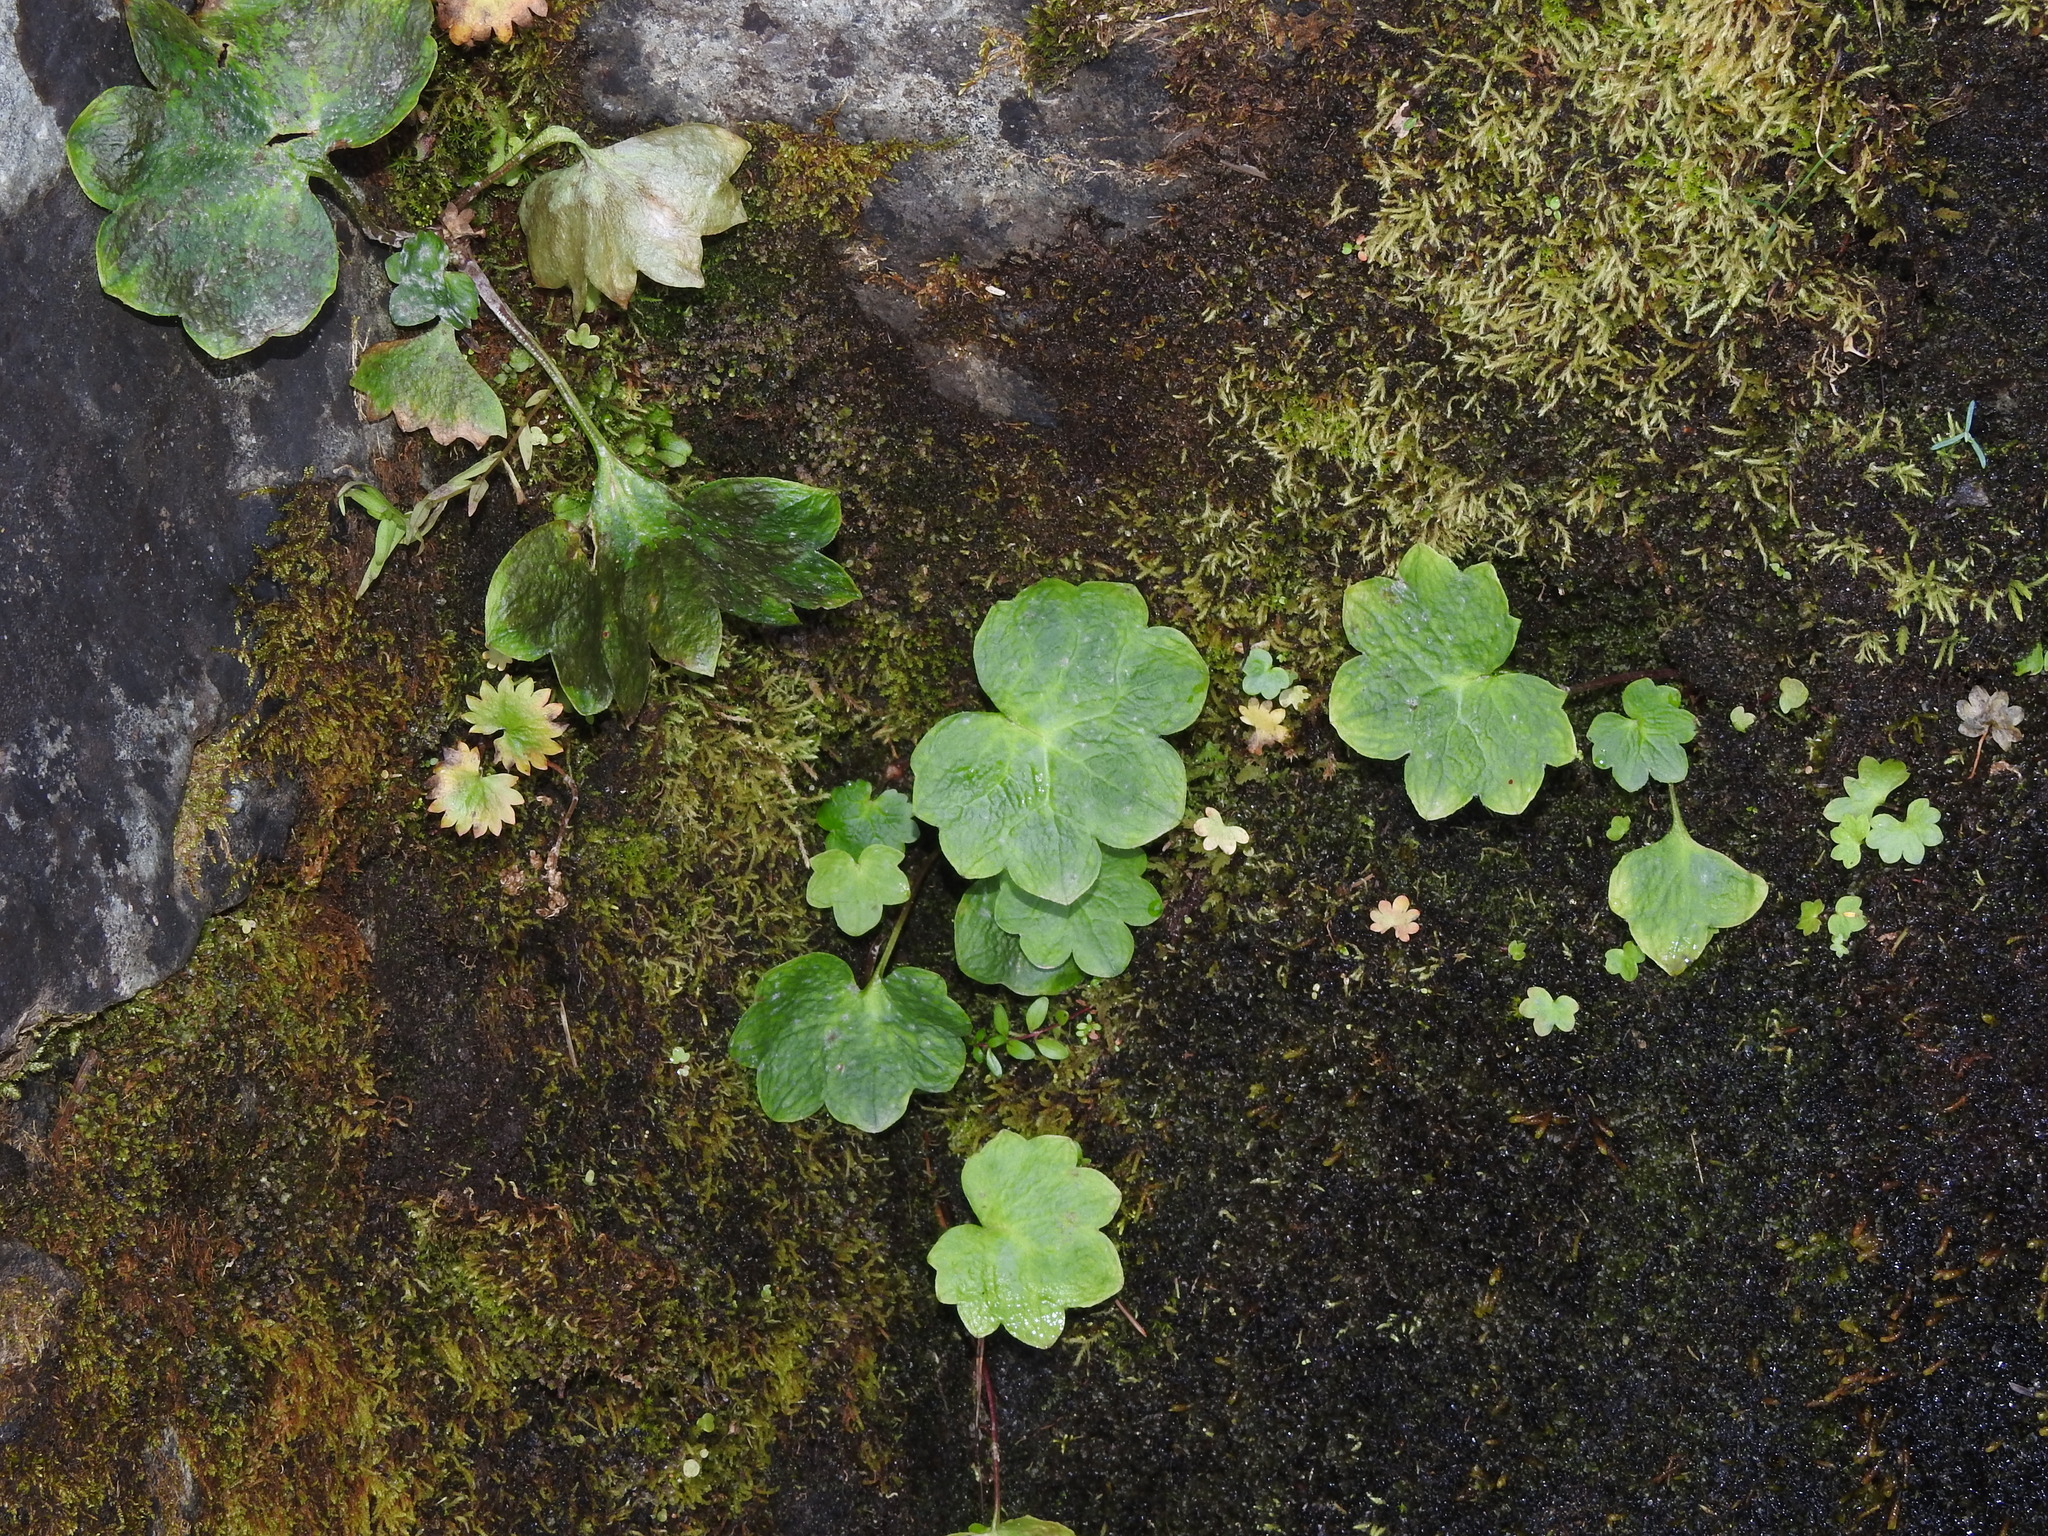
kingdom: Plantae
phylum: Tracheophyta
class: Magnoliopsida
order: Boraginales
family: Hydrophyllaceae
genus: Romanzoffia
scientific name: Romanzoffia sitchensis
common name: Sitka mistmaid
